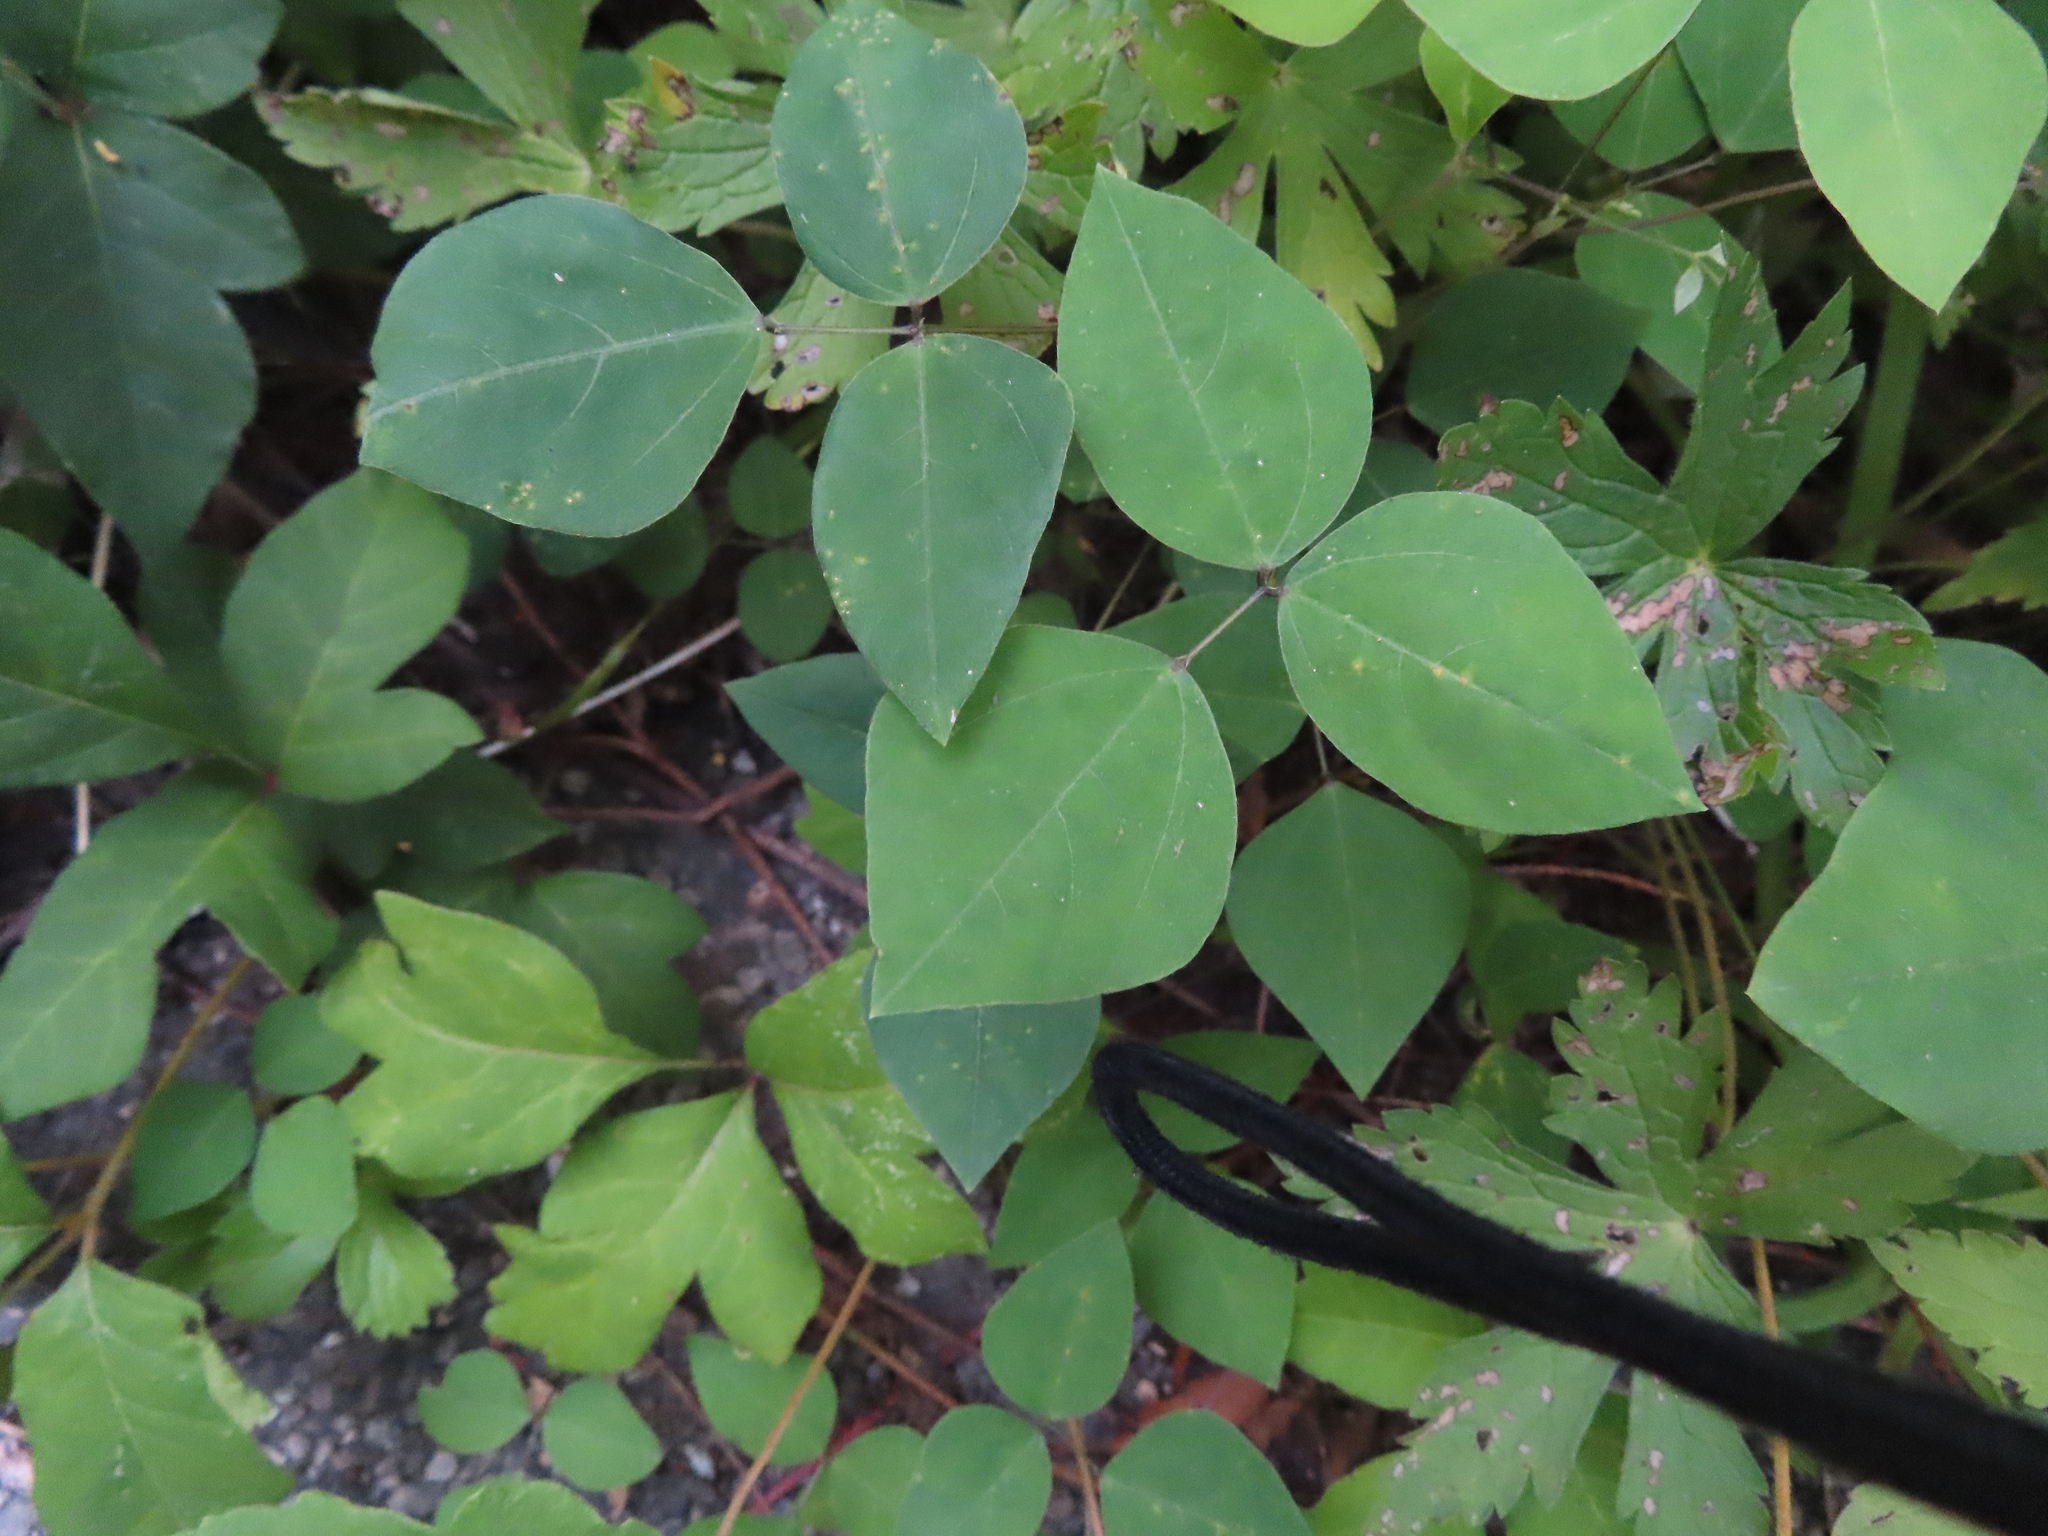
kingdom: Plantae
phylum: Tracheophyta
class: Magnoliopsida
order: Fabales
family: Fabaceae
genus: Amphicarpaea
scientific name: Amphicarpaea bracteata
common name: American hog peanut
